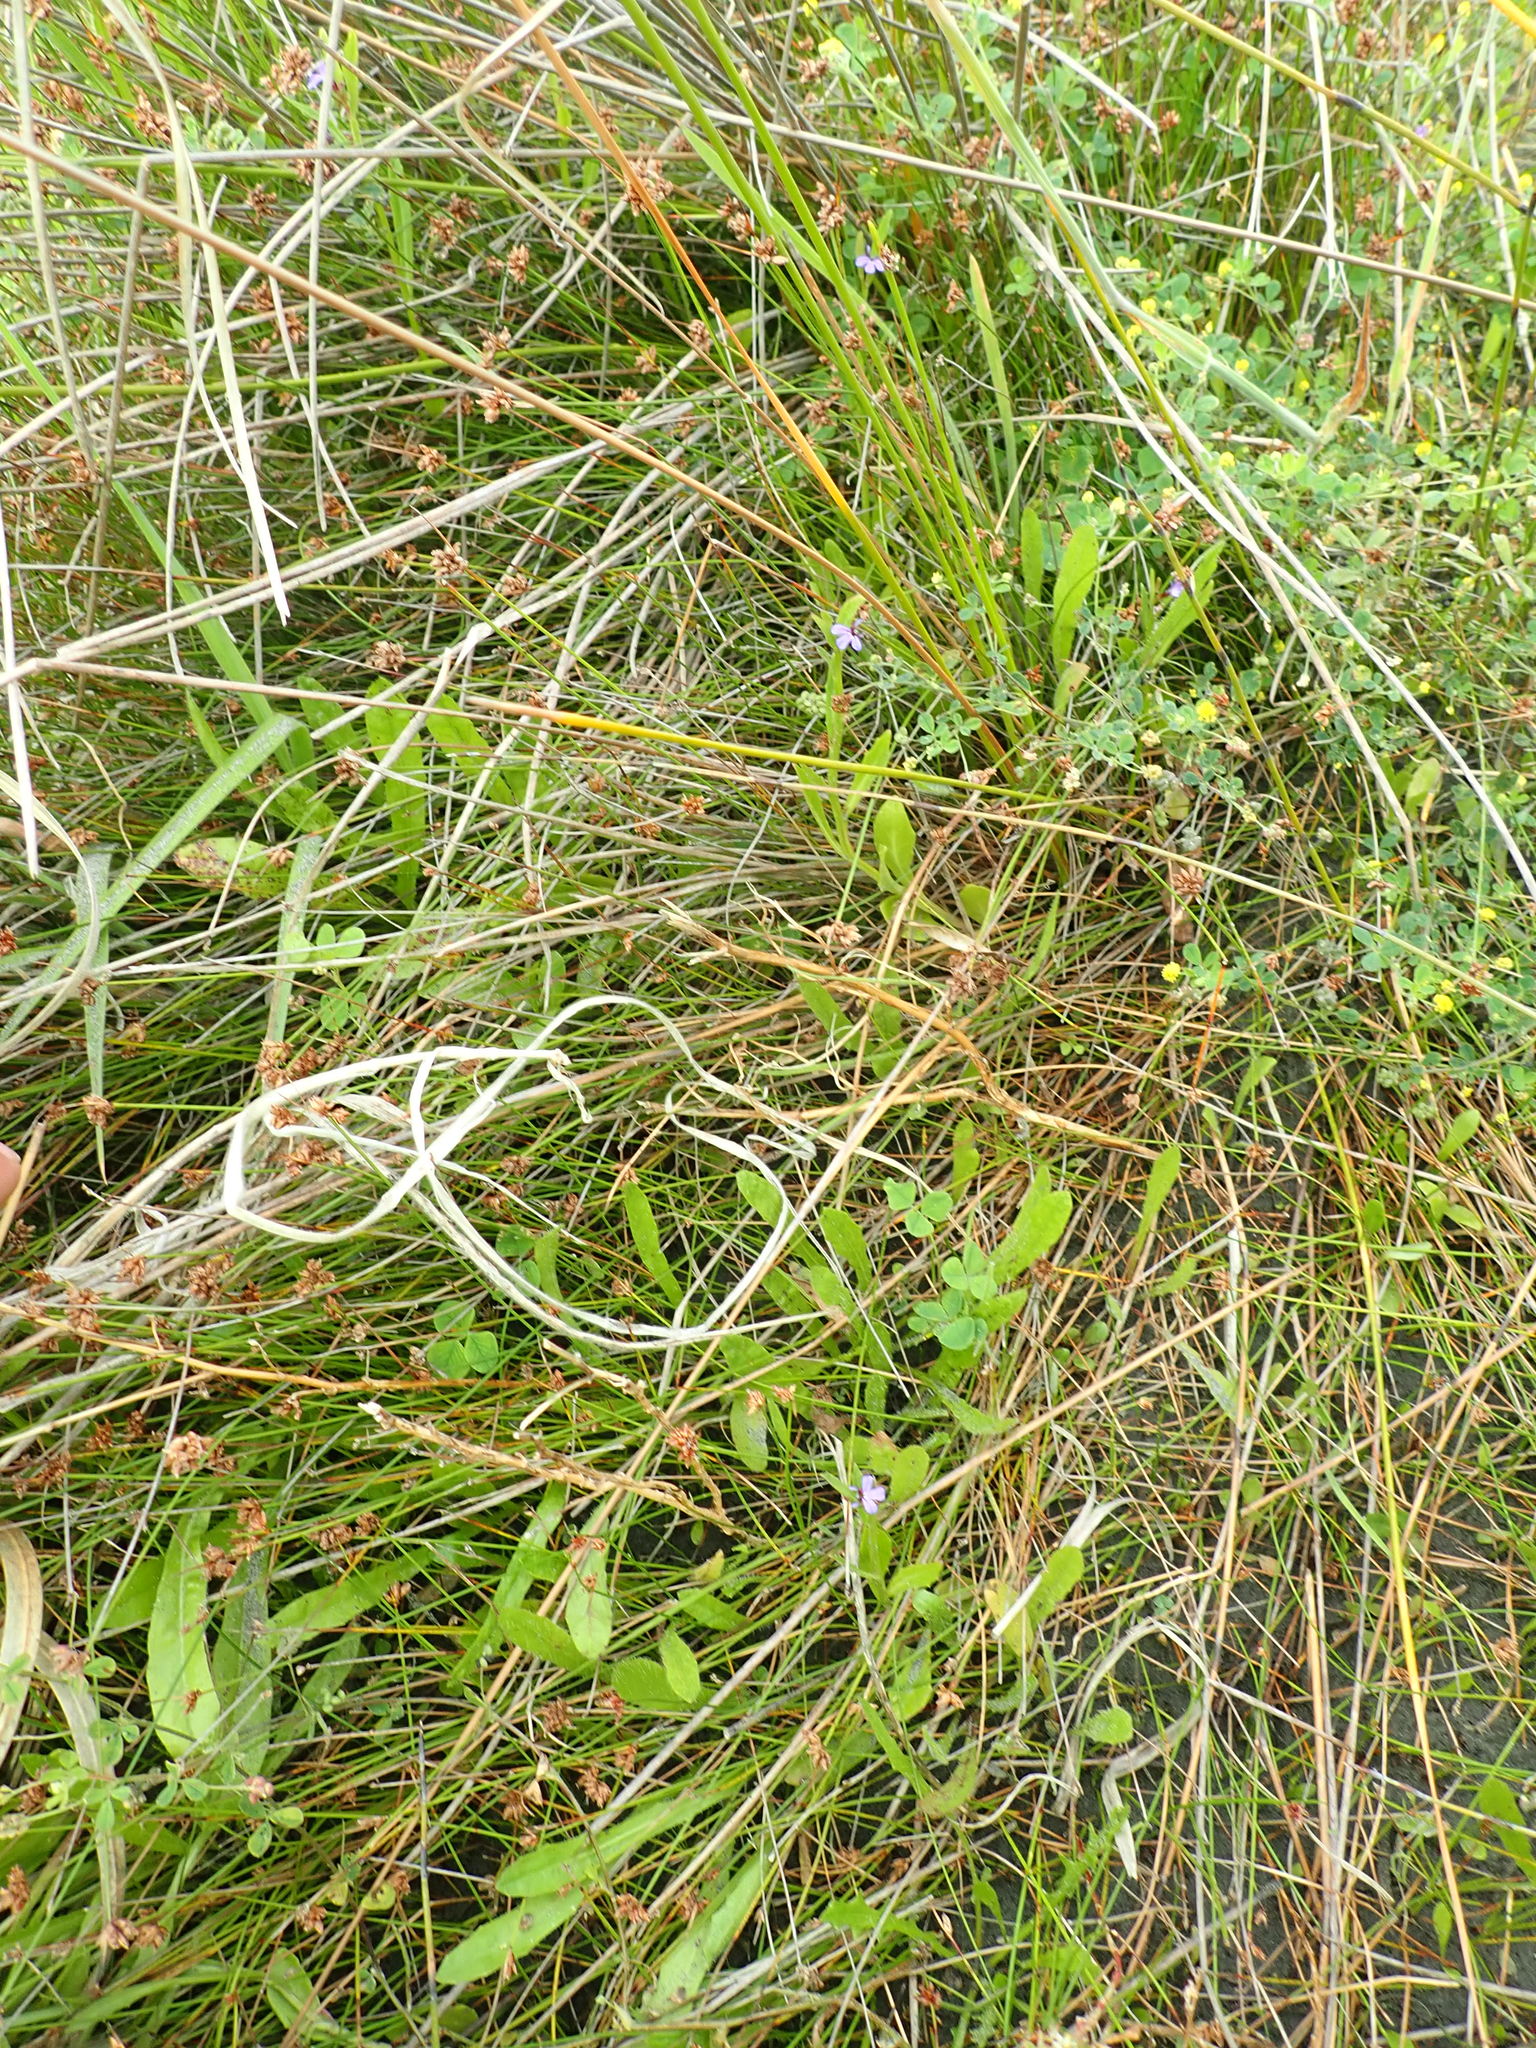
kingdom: Plantae
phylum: Tracheophyta
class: Magnoliopsida
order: Asterales
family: Campanulaceae
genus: Lobelia
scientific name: Lobelia anceps
